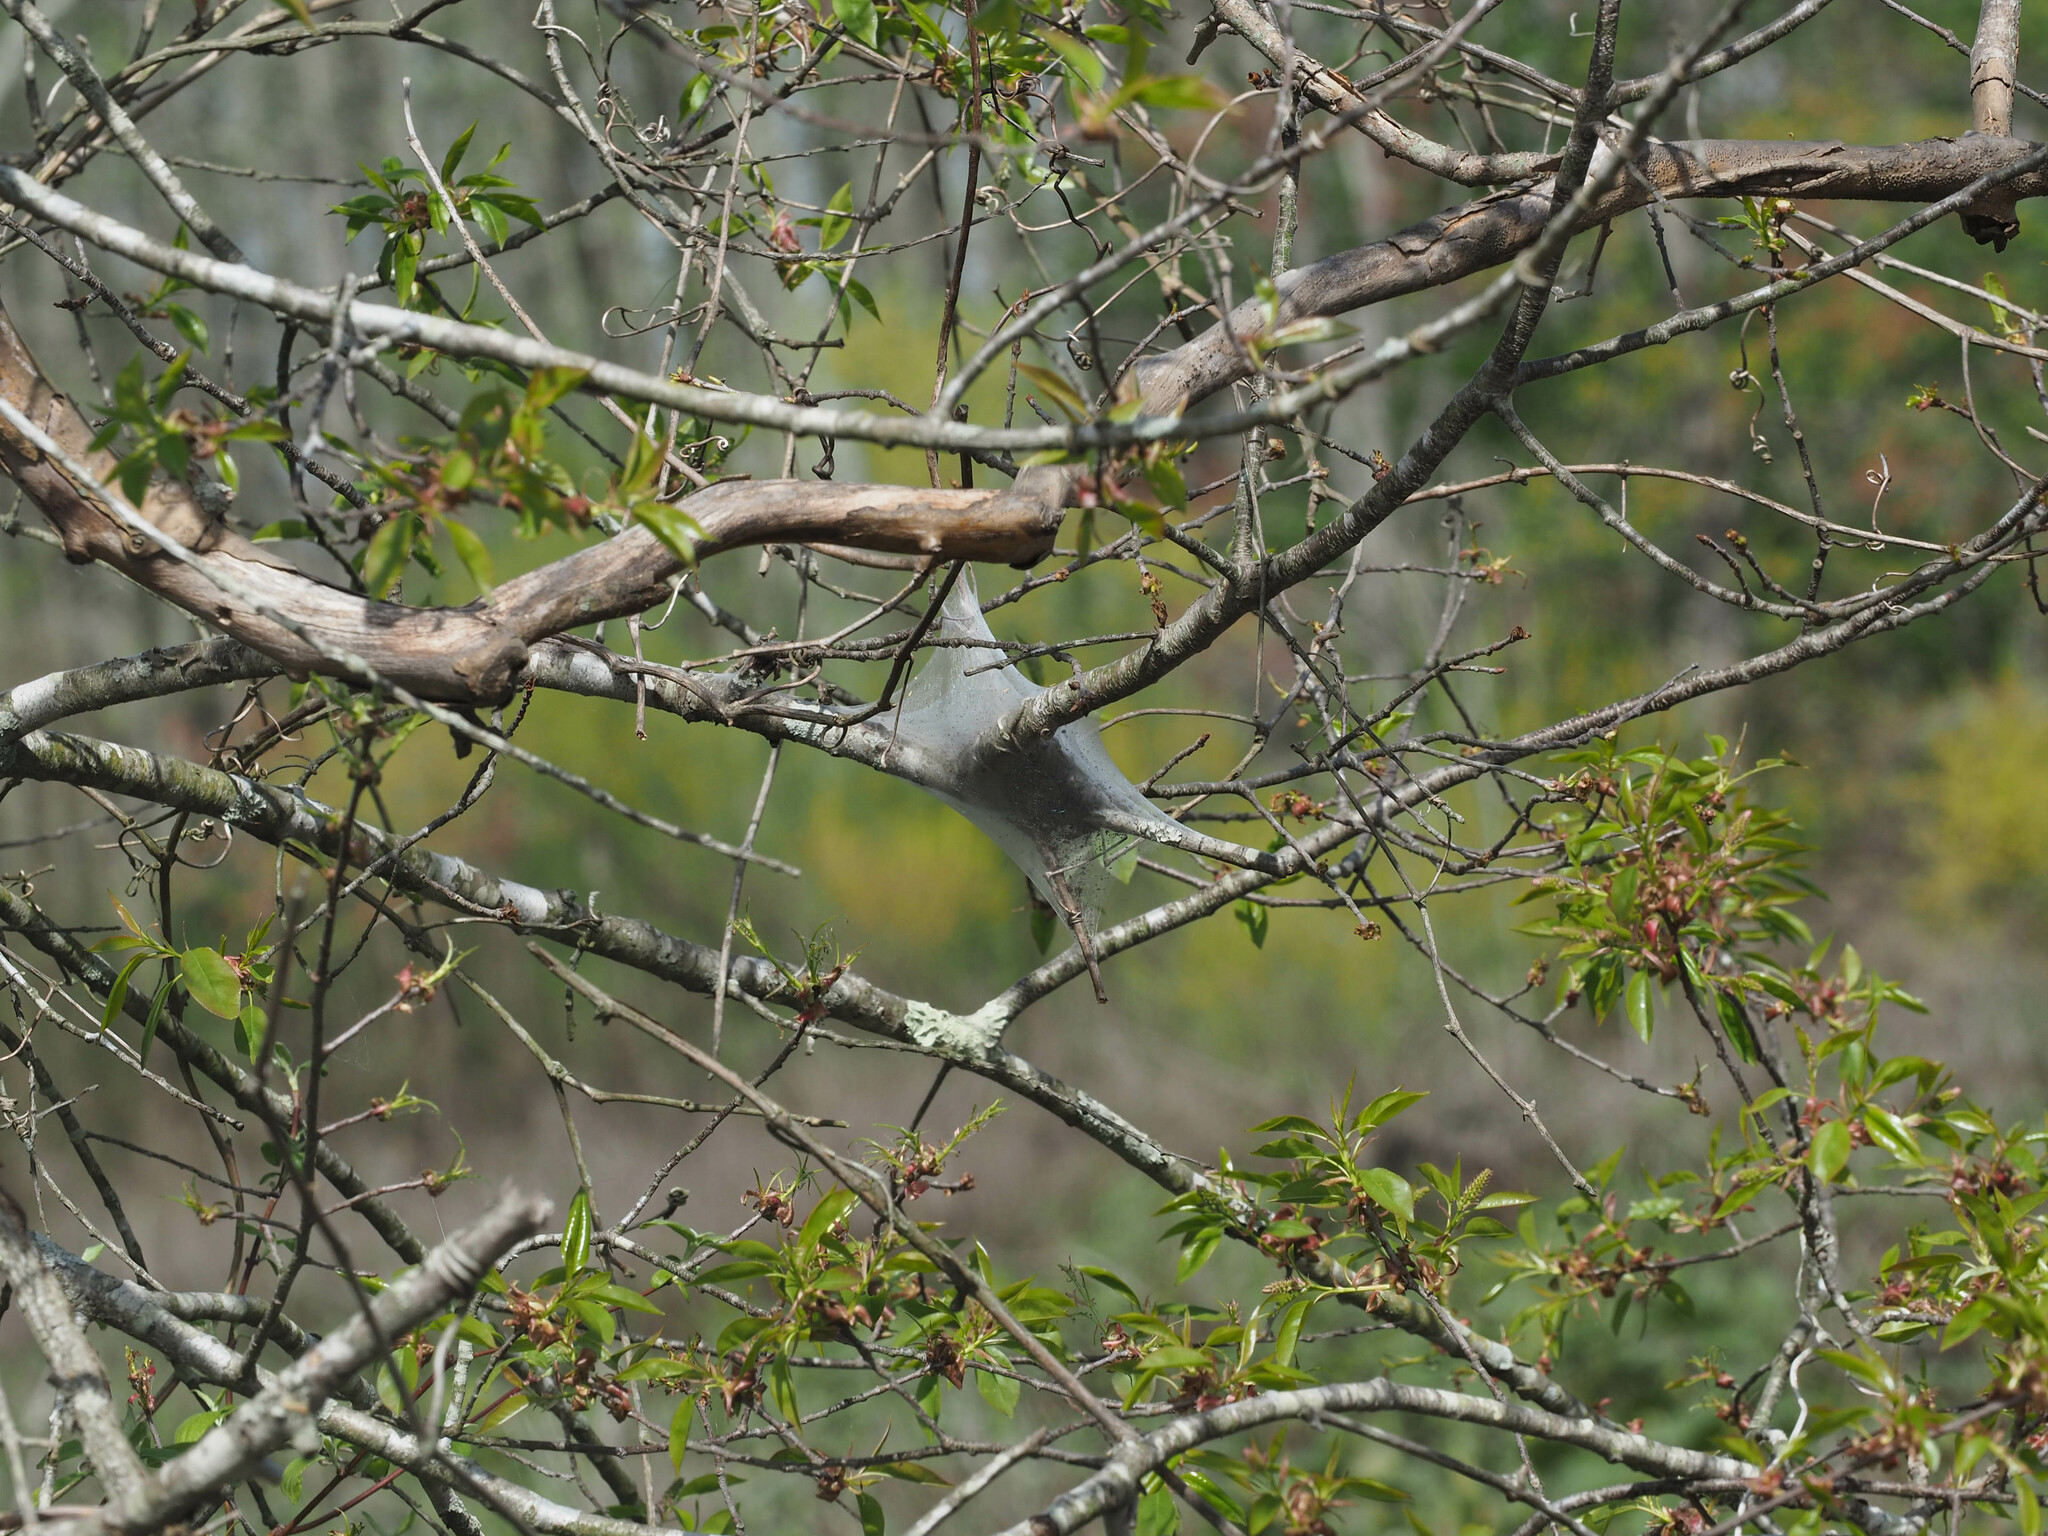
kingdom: Animalia
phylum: Arthropoda
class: Insecta
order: Lepidoptera
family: Lasiocampidae
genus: Malacosoma
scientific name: Malacosoma americana
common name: Eastern tent caterpillar moth
